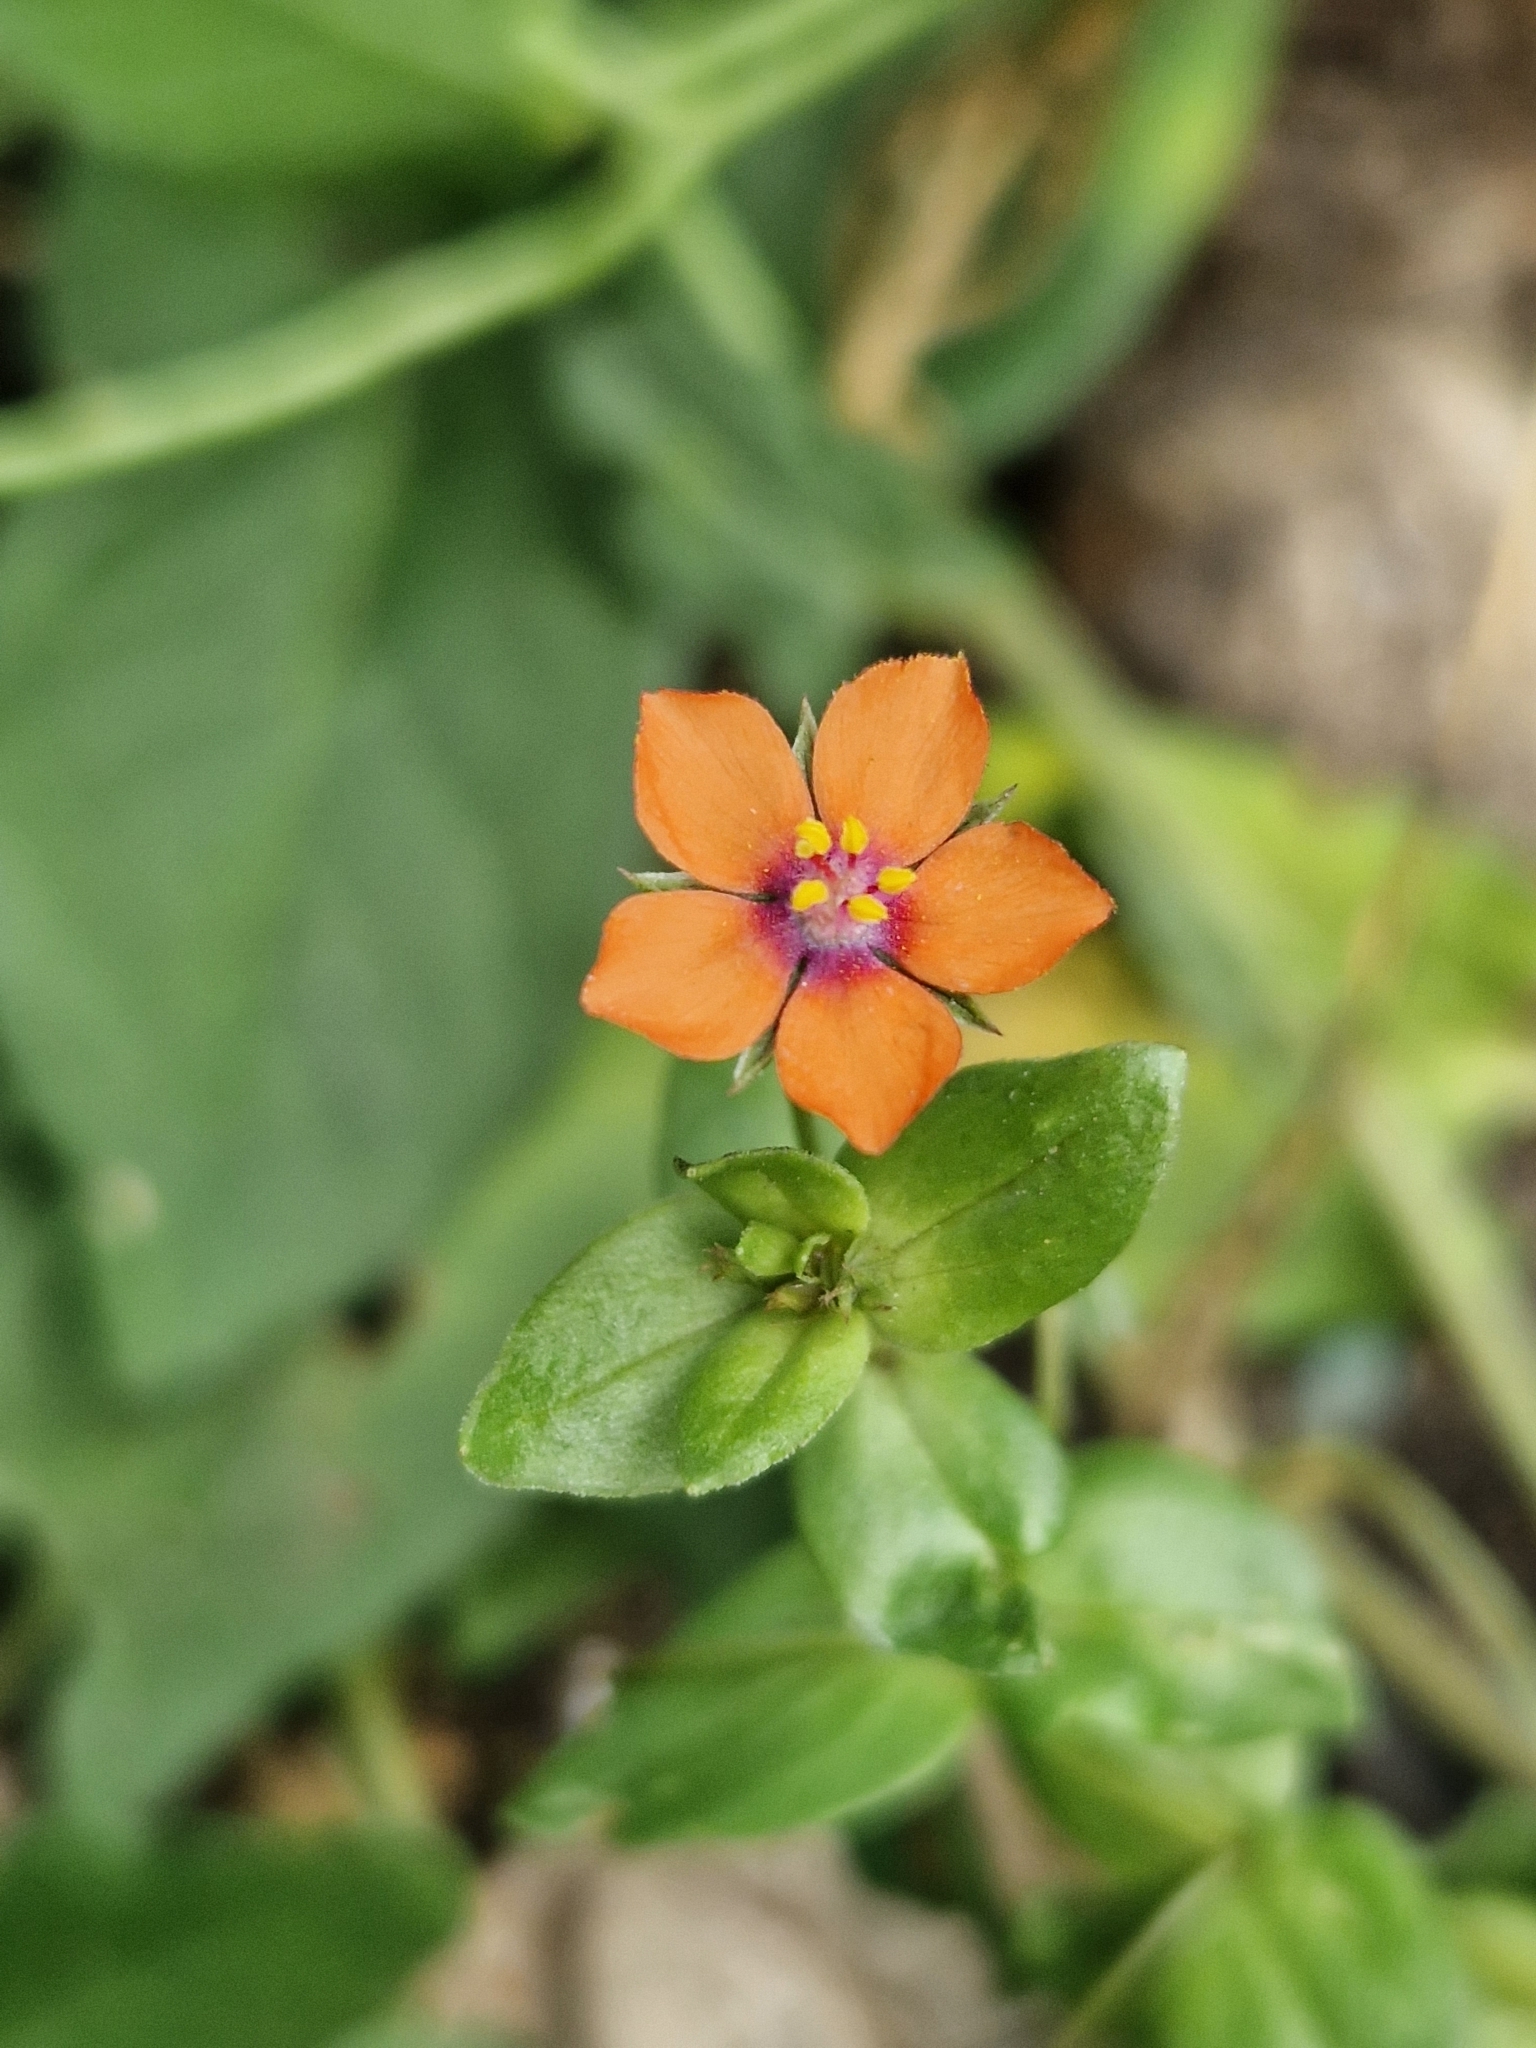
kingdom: Plantae
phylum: Tracheophyta
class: Magnoliopsida
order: Ericales
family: Primulaceae
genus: Lysimachia
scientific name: Lysimachia arvensis
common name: Scarlet pimpernel
